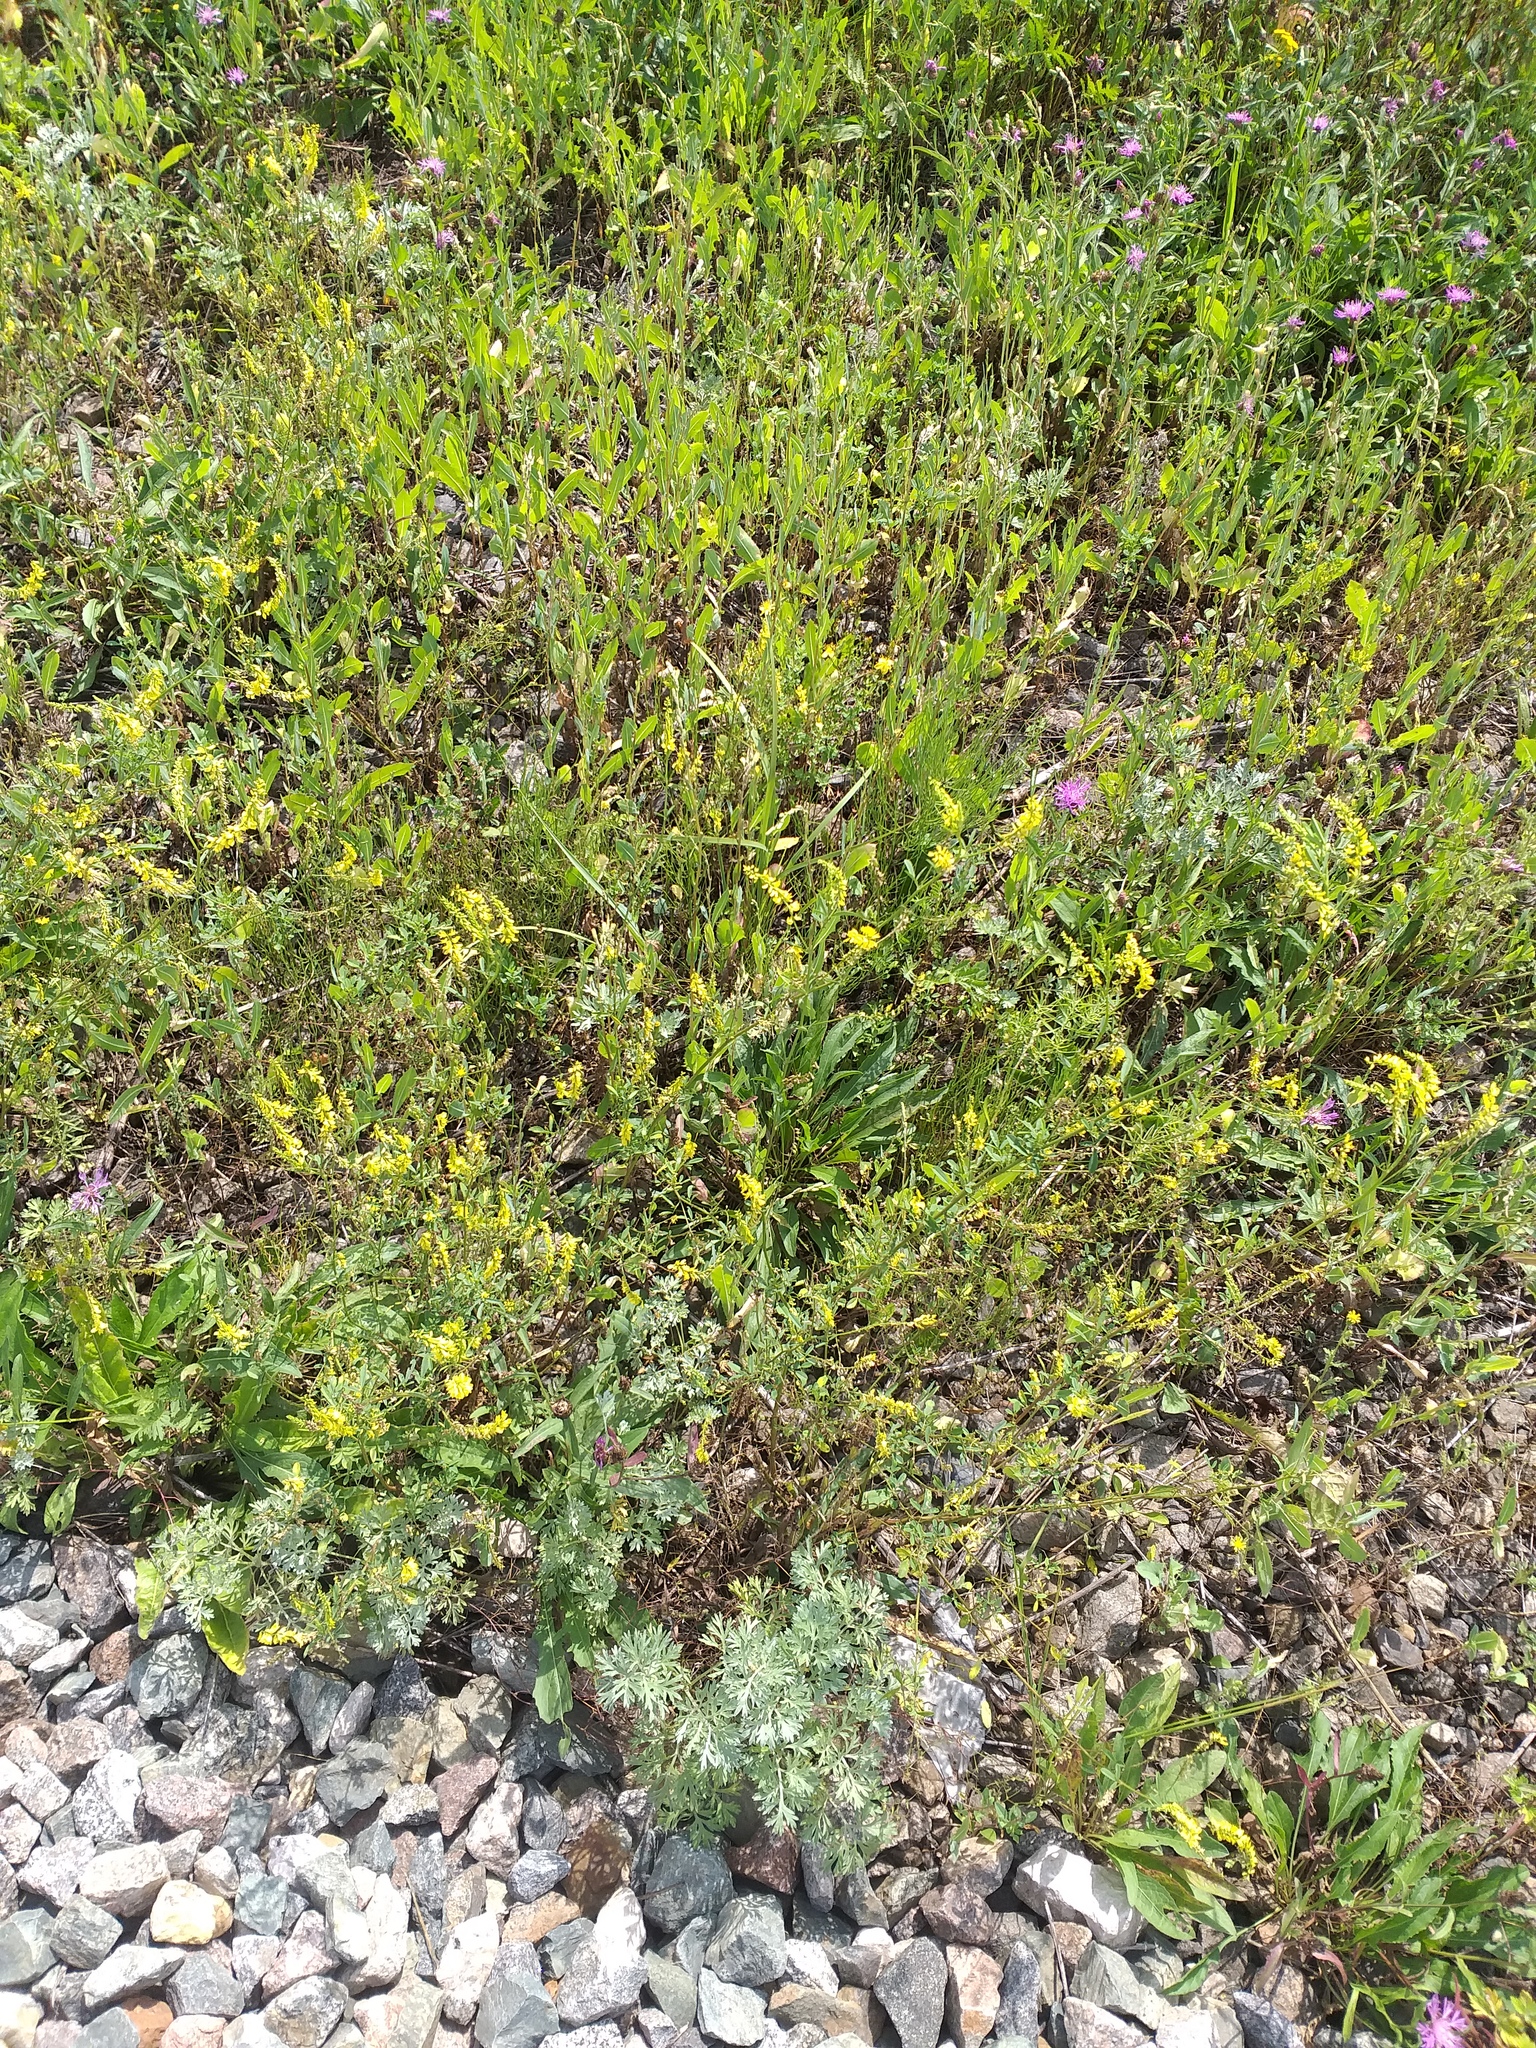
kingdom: Plantae
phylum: Tracheophyta
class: Magnoliopsida
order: Fabales
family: Fabaceae
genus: Melilotus
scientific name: Melilotus officinalis
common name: Sweetclover
